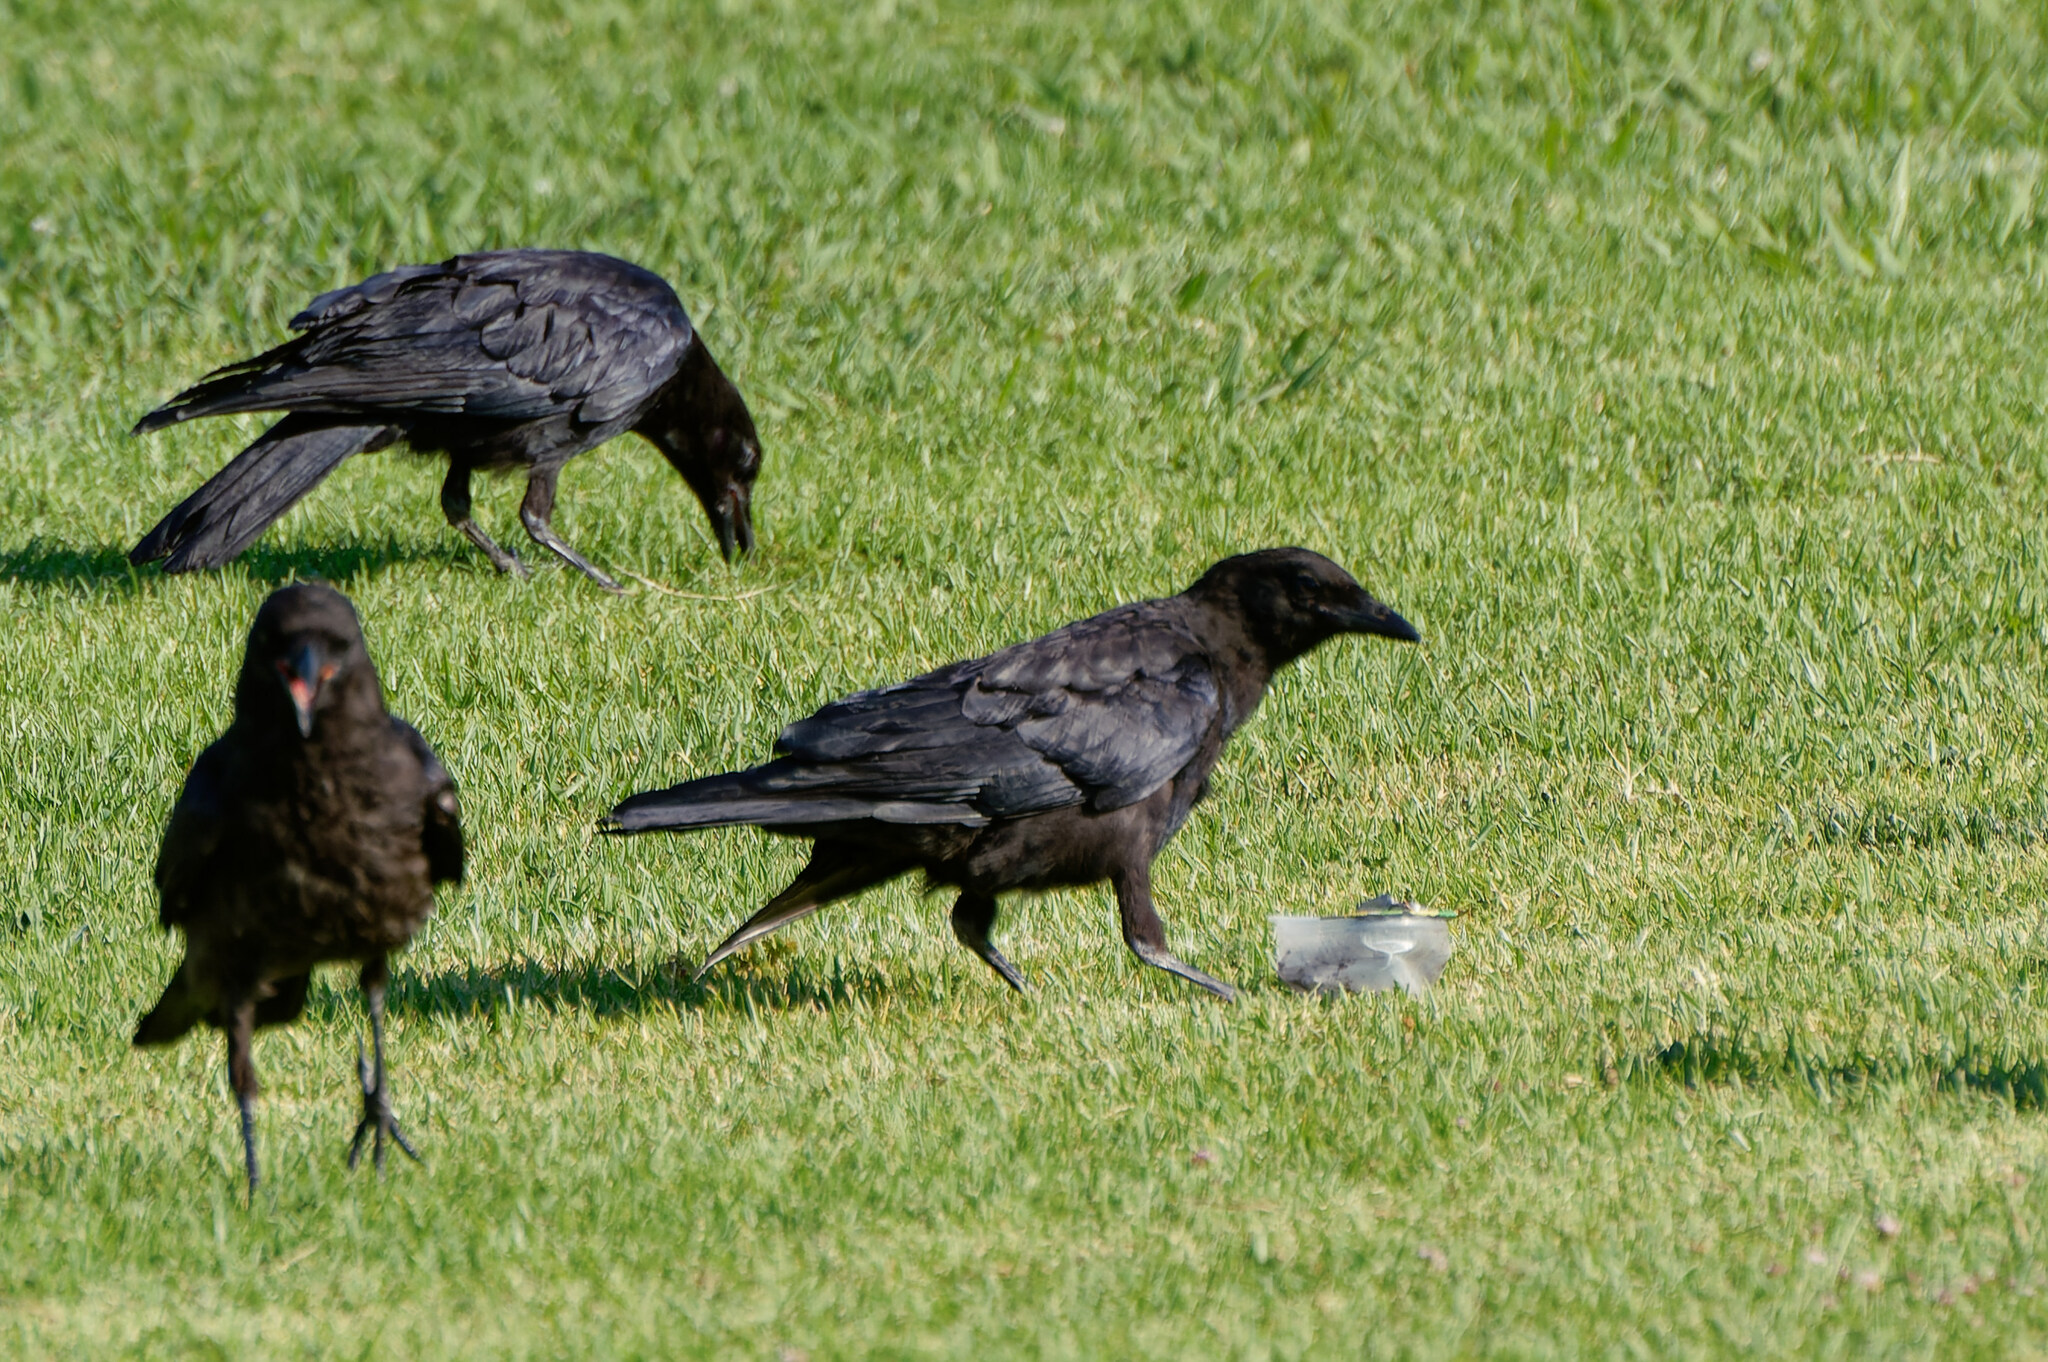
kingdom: Animalia
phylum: Chordata
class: Aves
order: Passeriformes
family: Corvidae
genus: Corvus
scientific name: Corvus brachyrhynchos
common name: American crow
